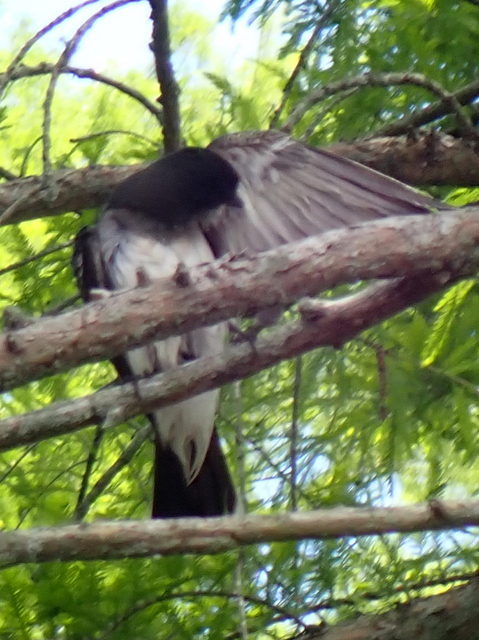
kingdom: Animalia
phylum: Chordata
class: Aves
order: Passeriformes
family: Tyrannidae
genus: Tyrannus
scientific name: Tyrannus tyrannus
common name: Eastern kingbird
